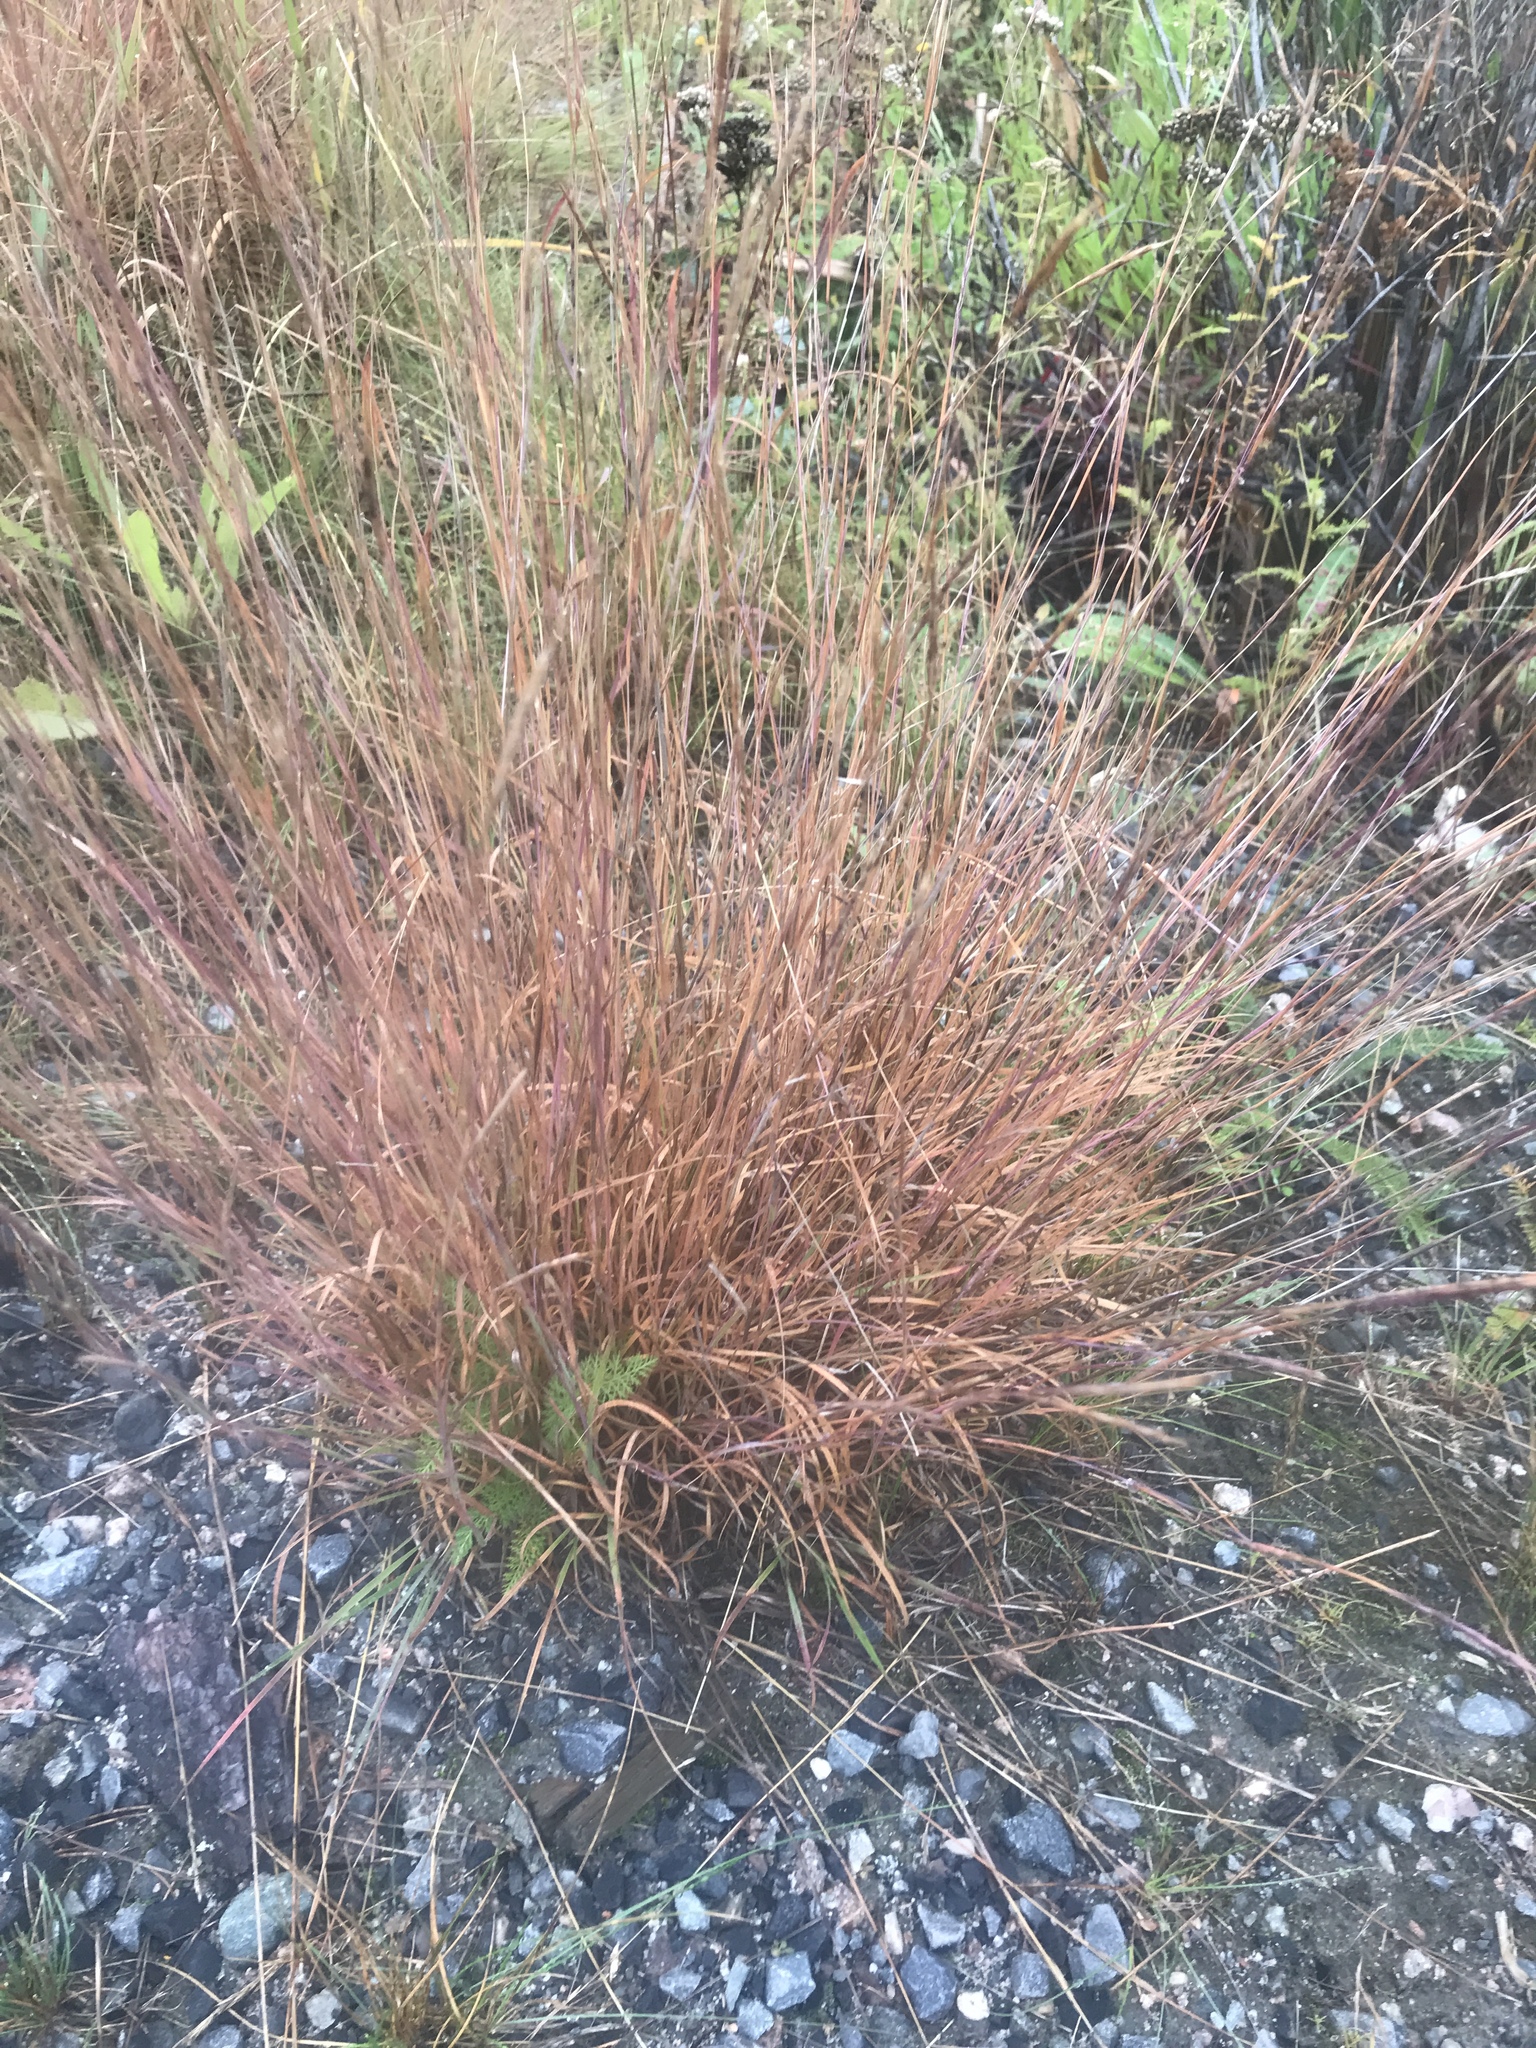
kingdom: Plantae
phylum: Tracheophyta
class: Liliopsida
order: Poales
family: Poaceae
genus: Schizachyrium
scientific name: Schizachyrium scoparium
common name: Little bluestem
